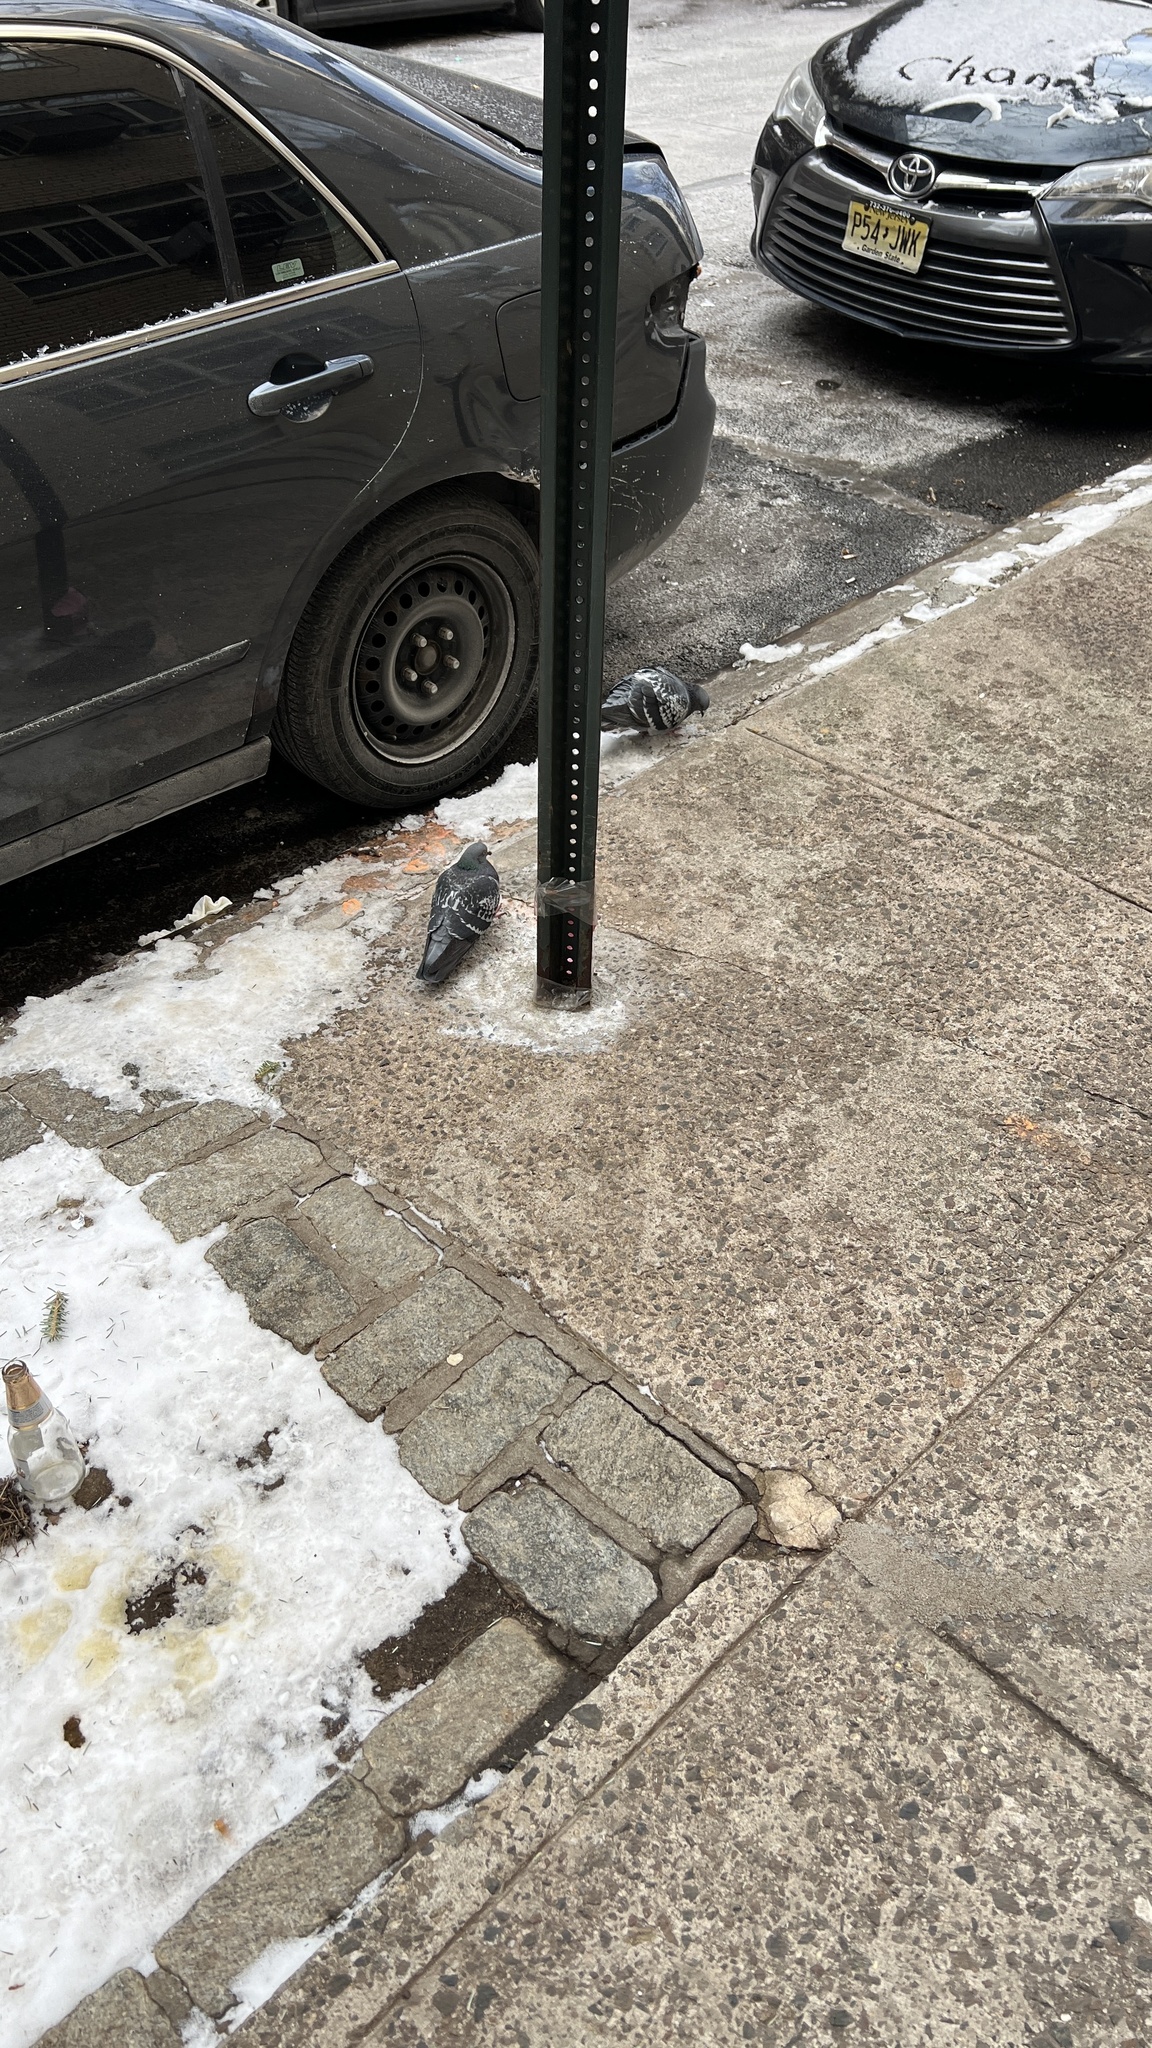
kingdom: Animalia
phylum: Chordata
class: Aves
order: Columbiformes
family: Columbidae
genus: Columba
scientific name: Columba livia
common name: Rock pigeon
